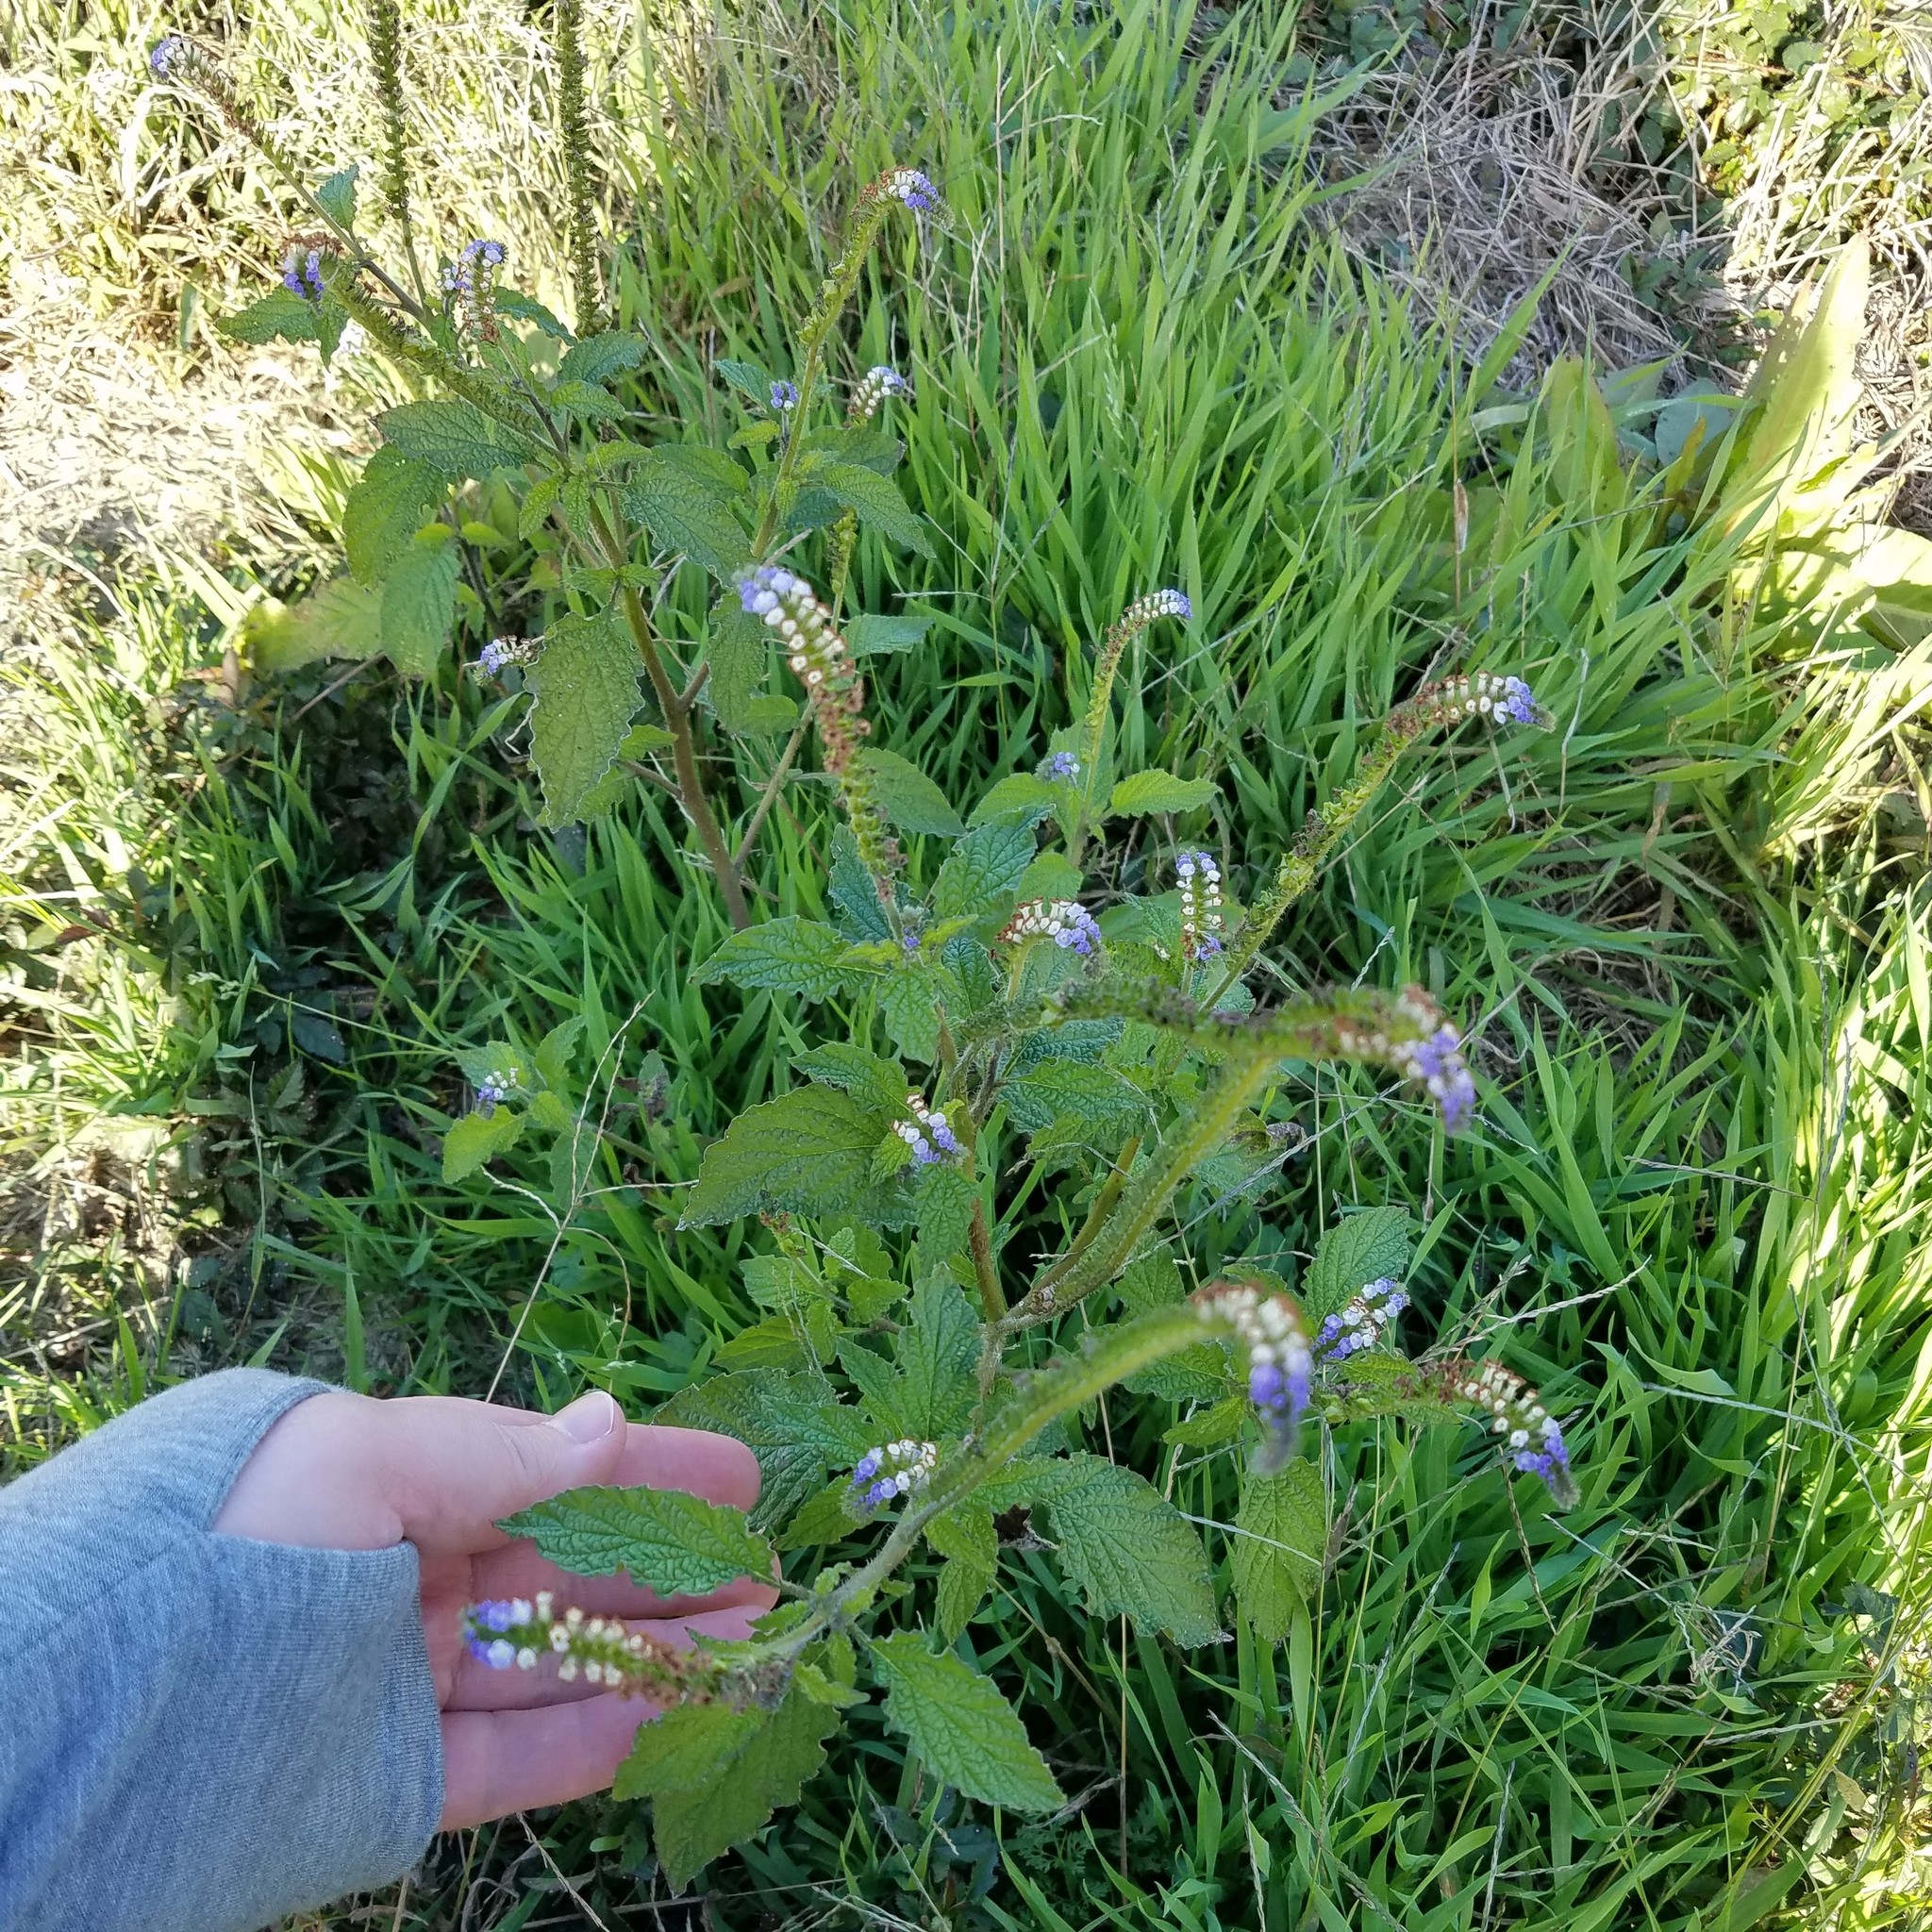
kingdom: Plantae
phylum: Tracheophyta
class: Magnoliopsida
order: Boraginales
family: Heliotropiaceae
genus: Heliotropium
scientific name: Heliotropium indicum
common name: Indian heliotrope
